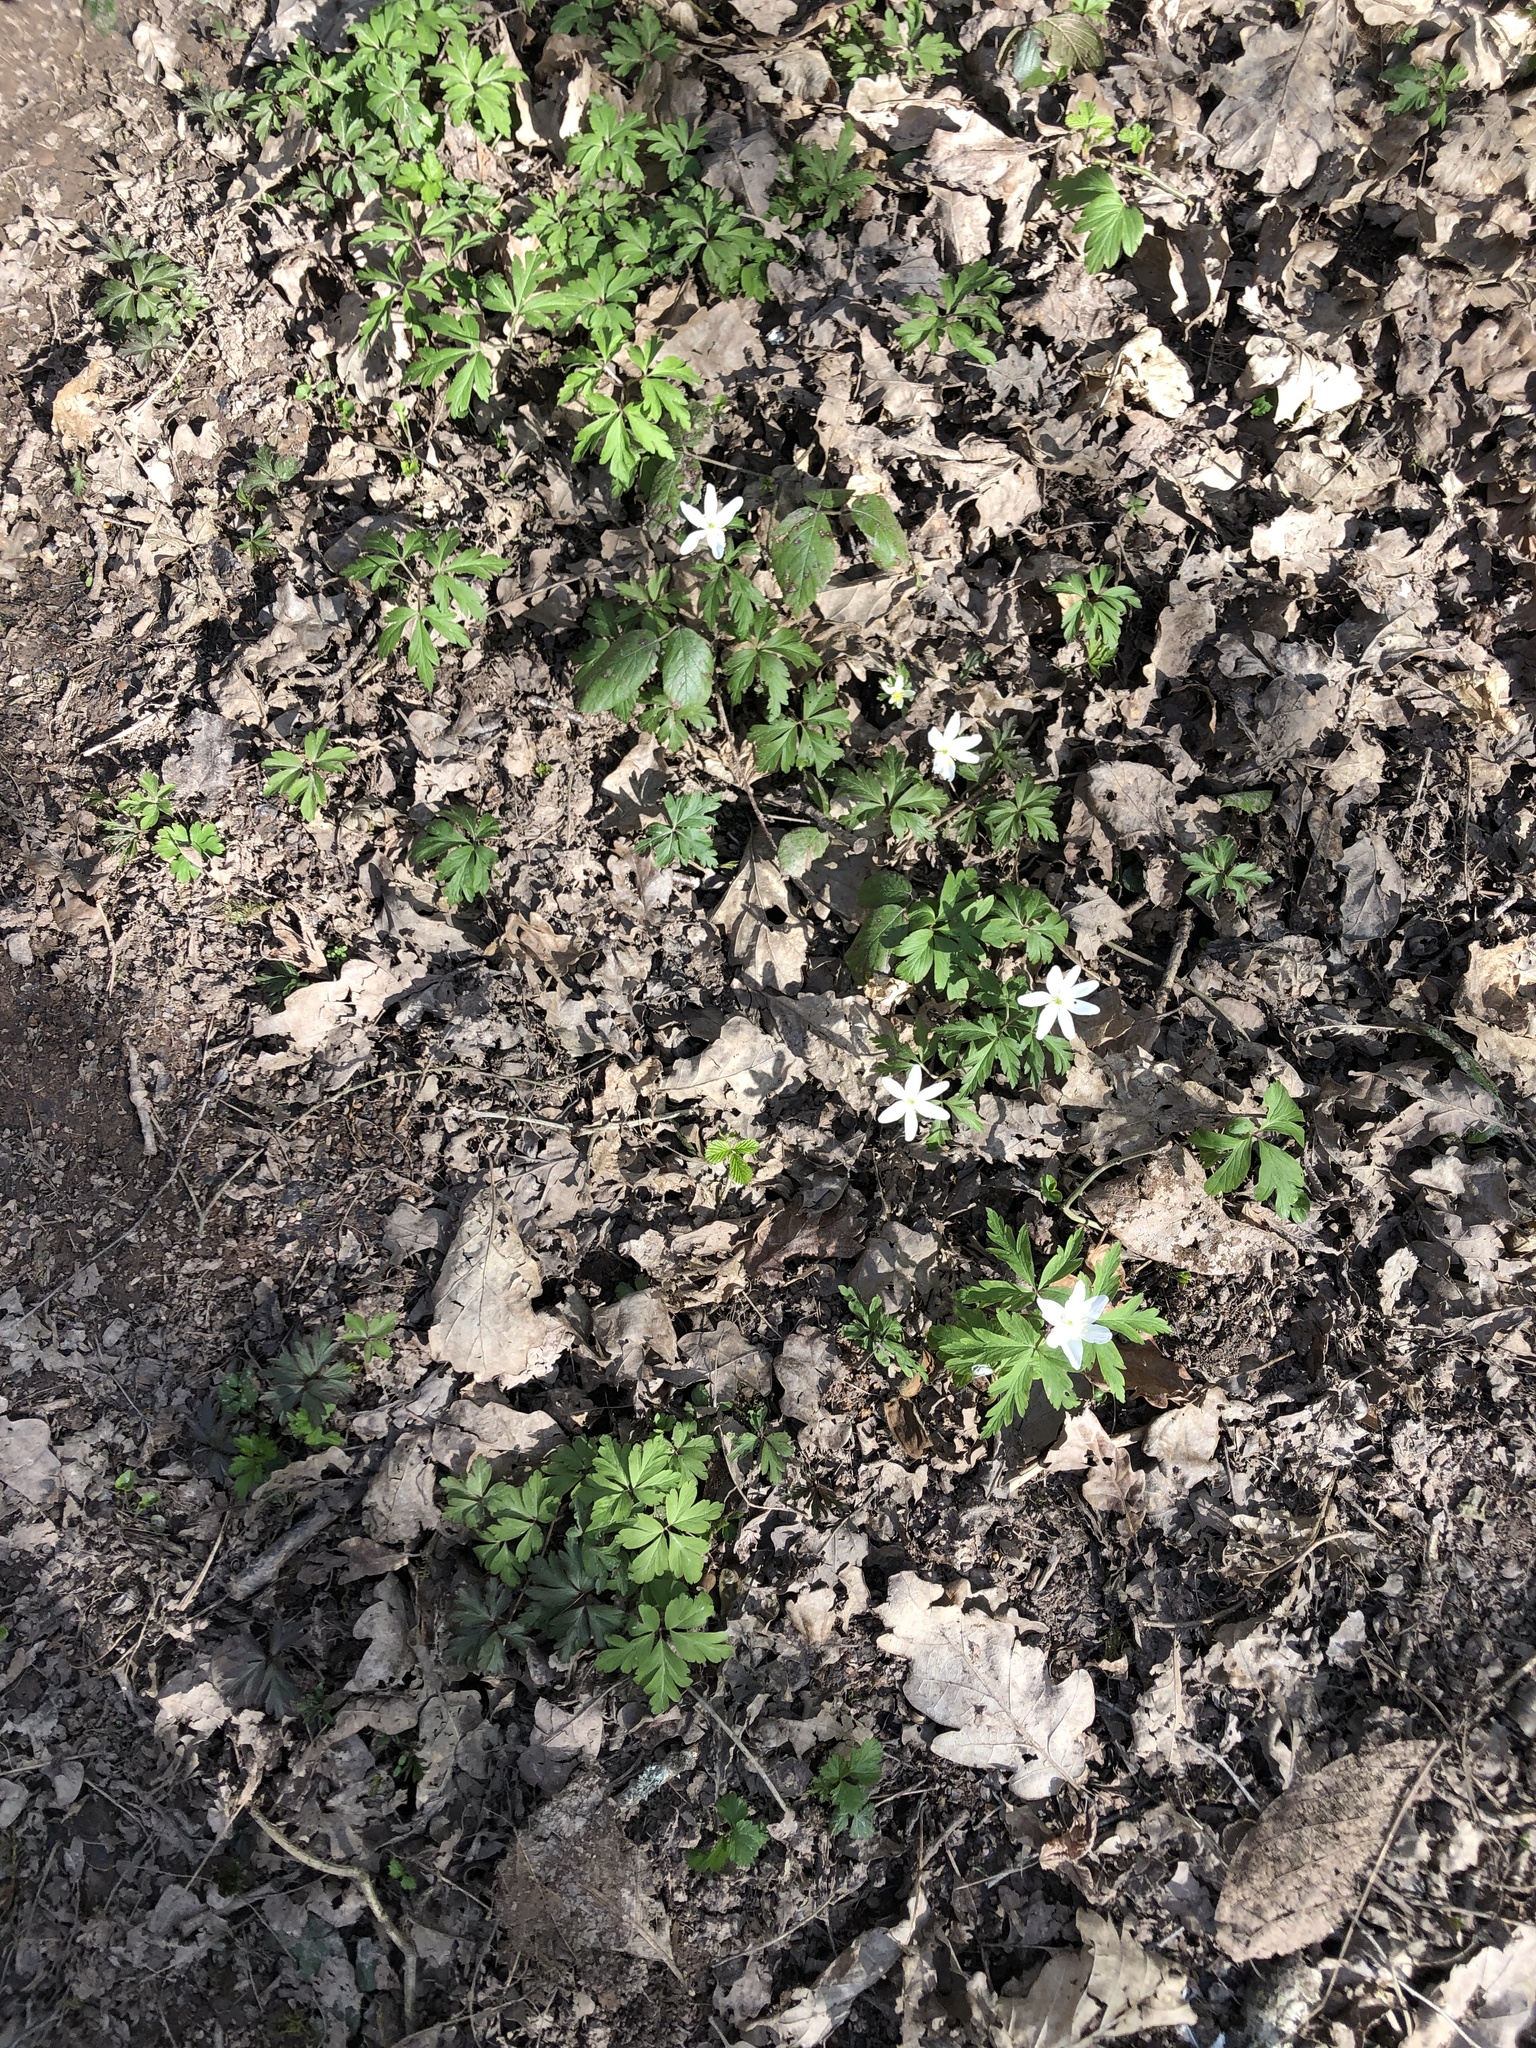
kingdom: Plantae
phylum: Tracheophyta
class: Magnoliopsida
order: Ranunculales
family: Ranunculaceae
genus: Anemone
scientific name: Anemone nemorosa
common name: Wood anemone
